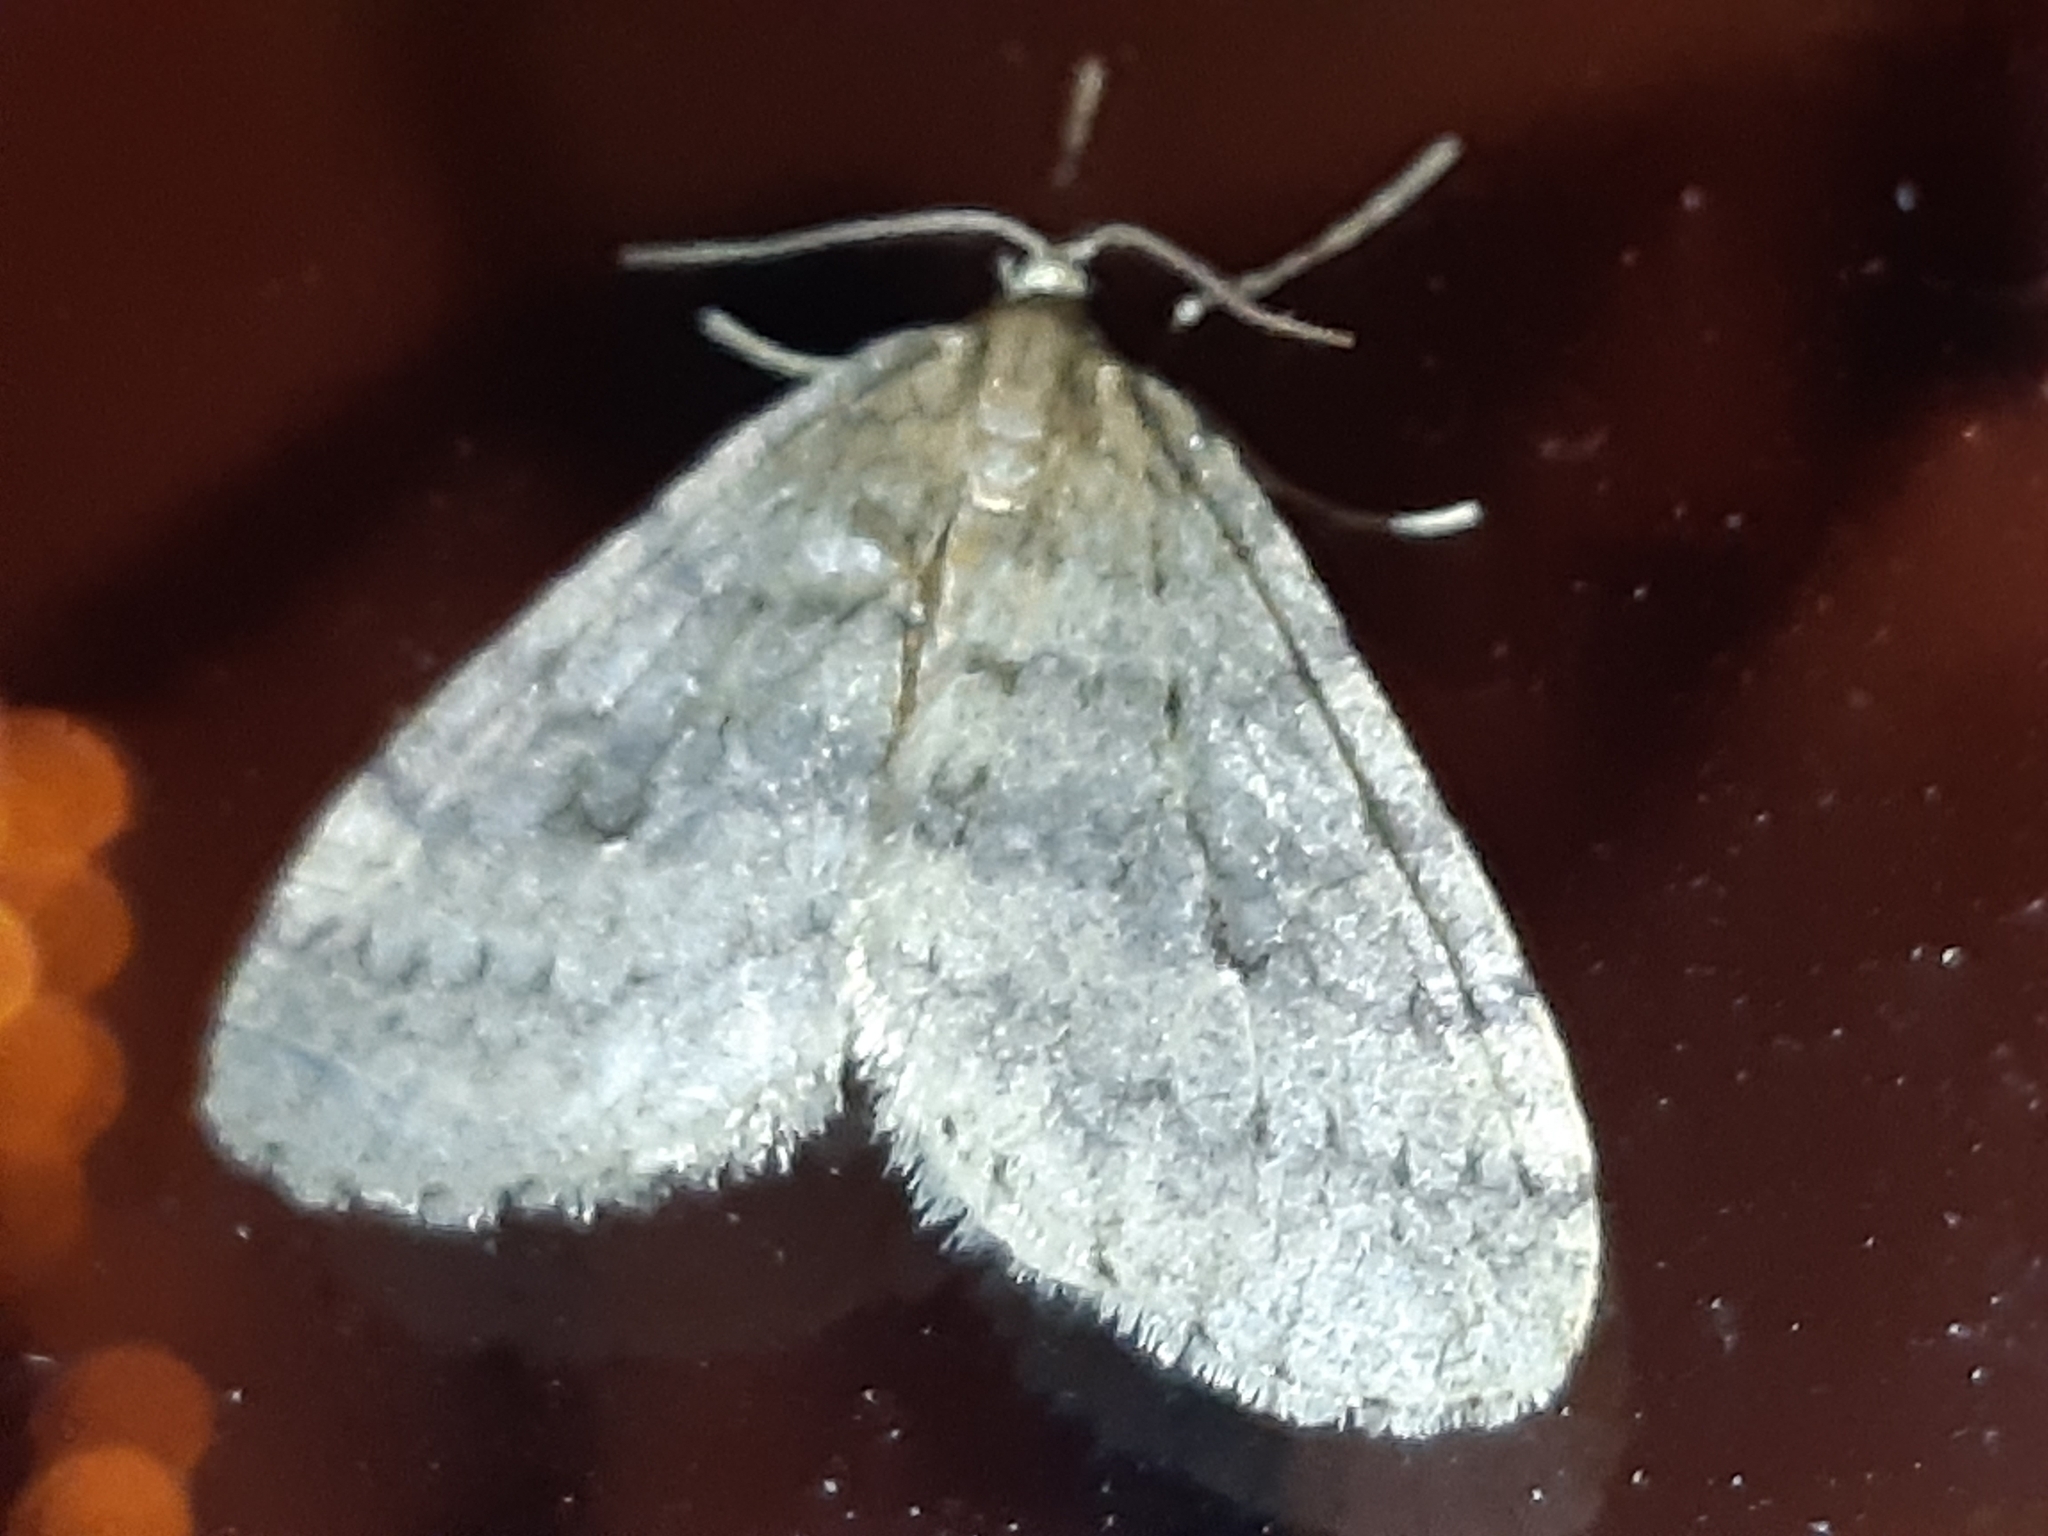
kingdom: Animalia
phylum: Arthropoda
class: Insecta
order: Lepidoptera
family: Geometridae
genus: Operophtera
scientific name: Operophtera brumata
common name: Winter moth
